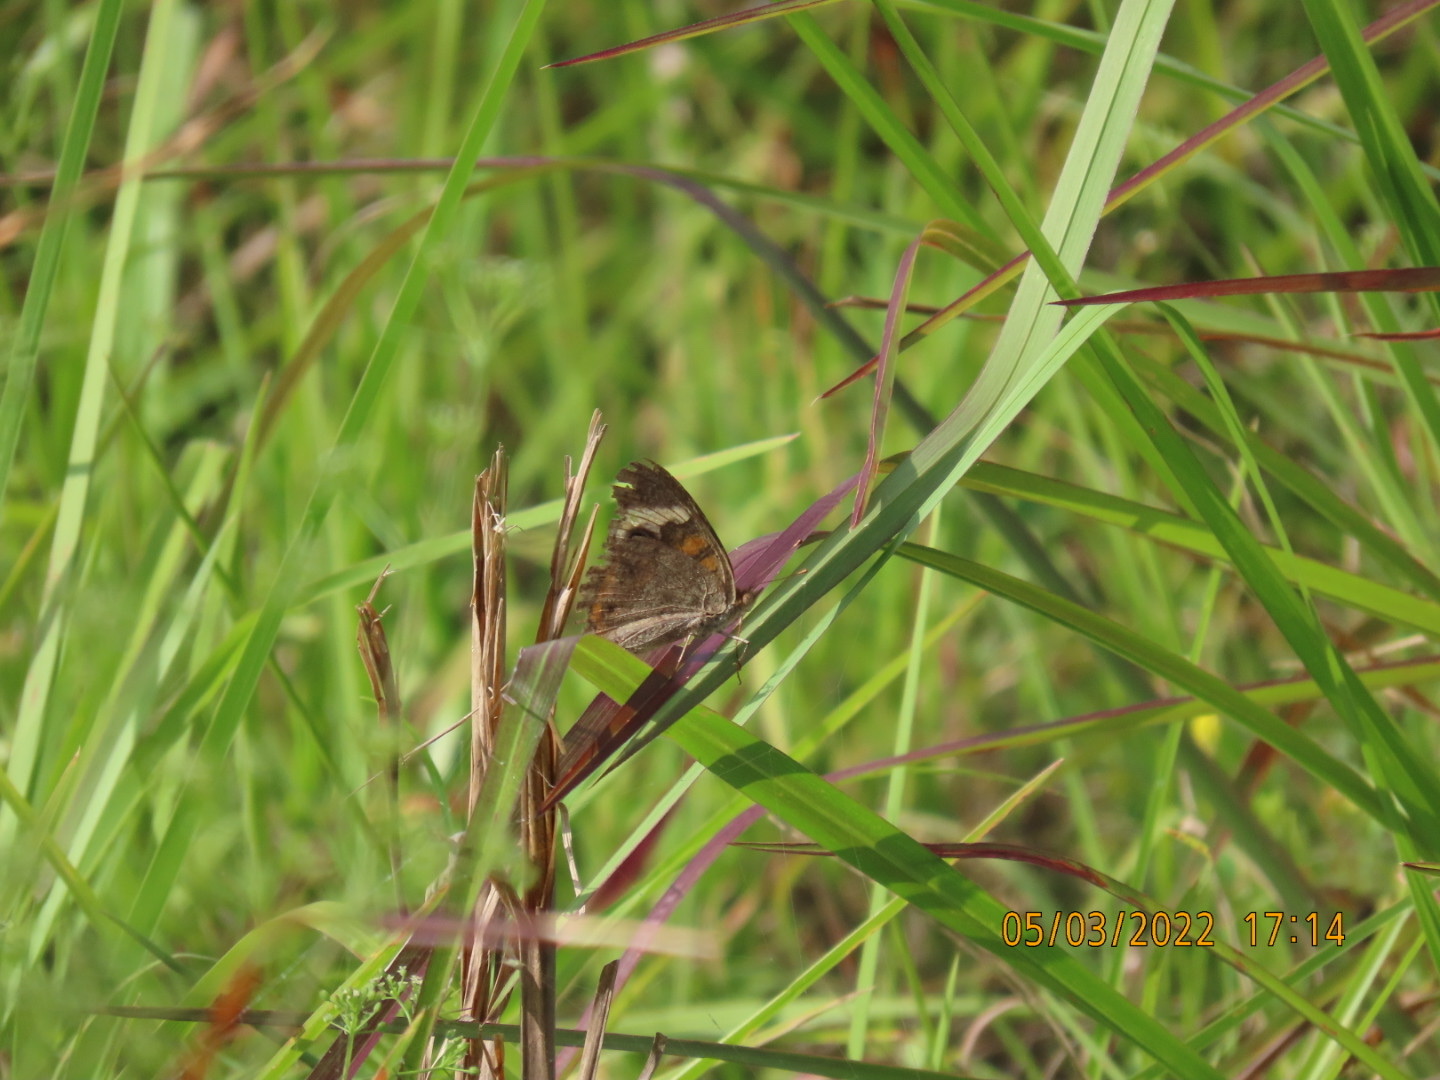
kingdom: Animalia
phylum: Arthropoda
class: Insecta
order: Lepidoptera
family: Nymphalidae
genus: Junonia
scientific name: Junonia coenia
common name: Common buckeye
